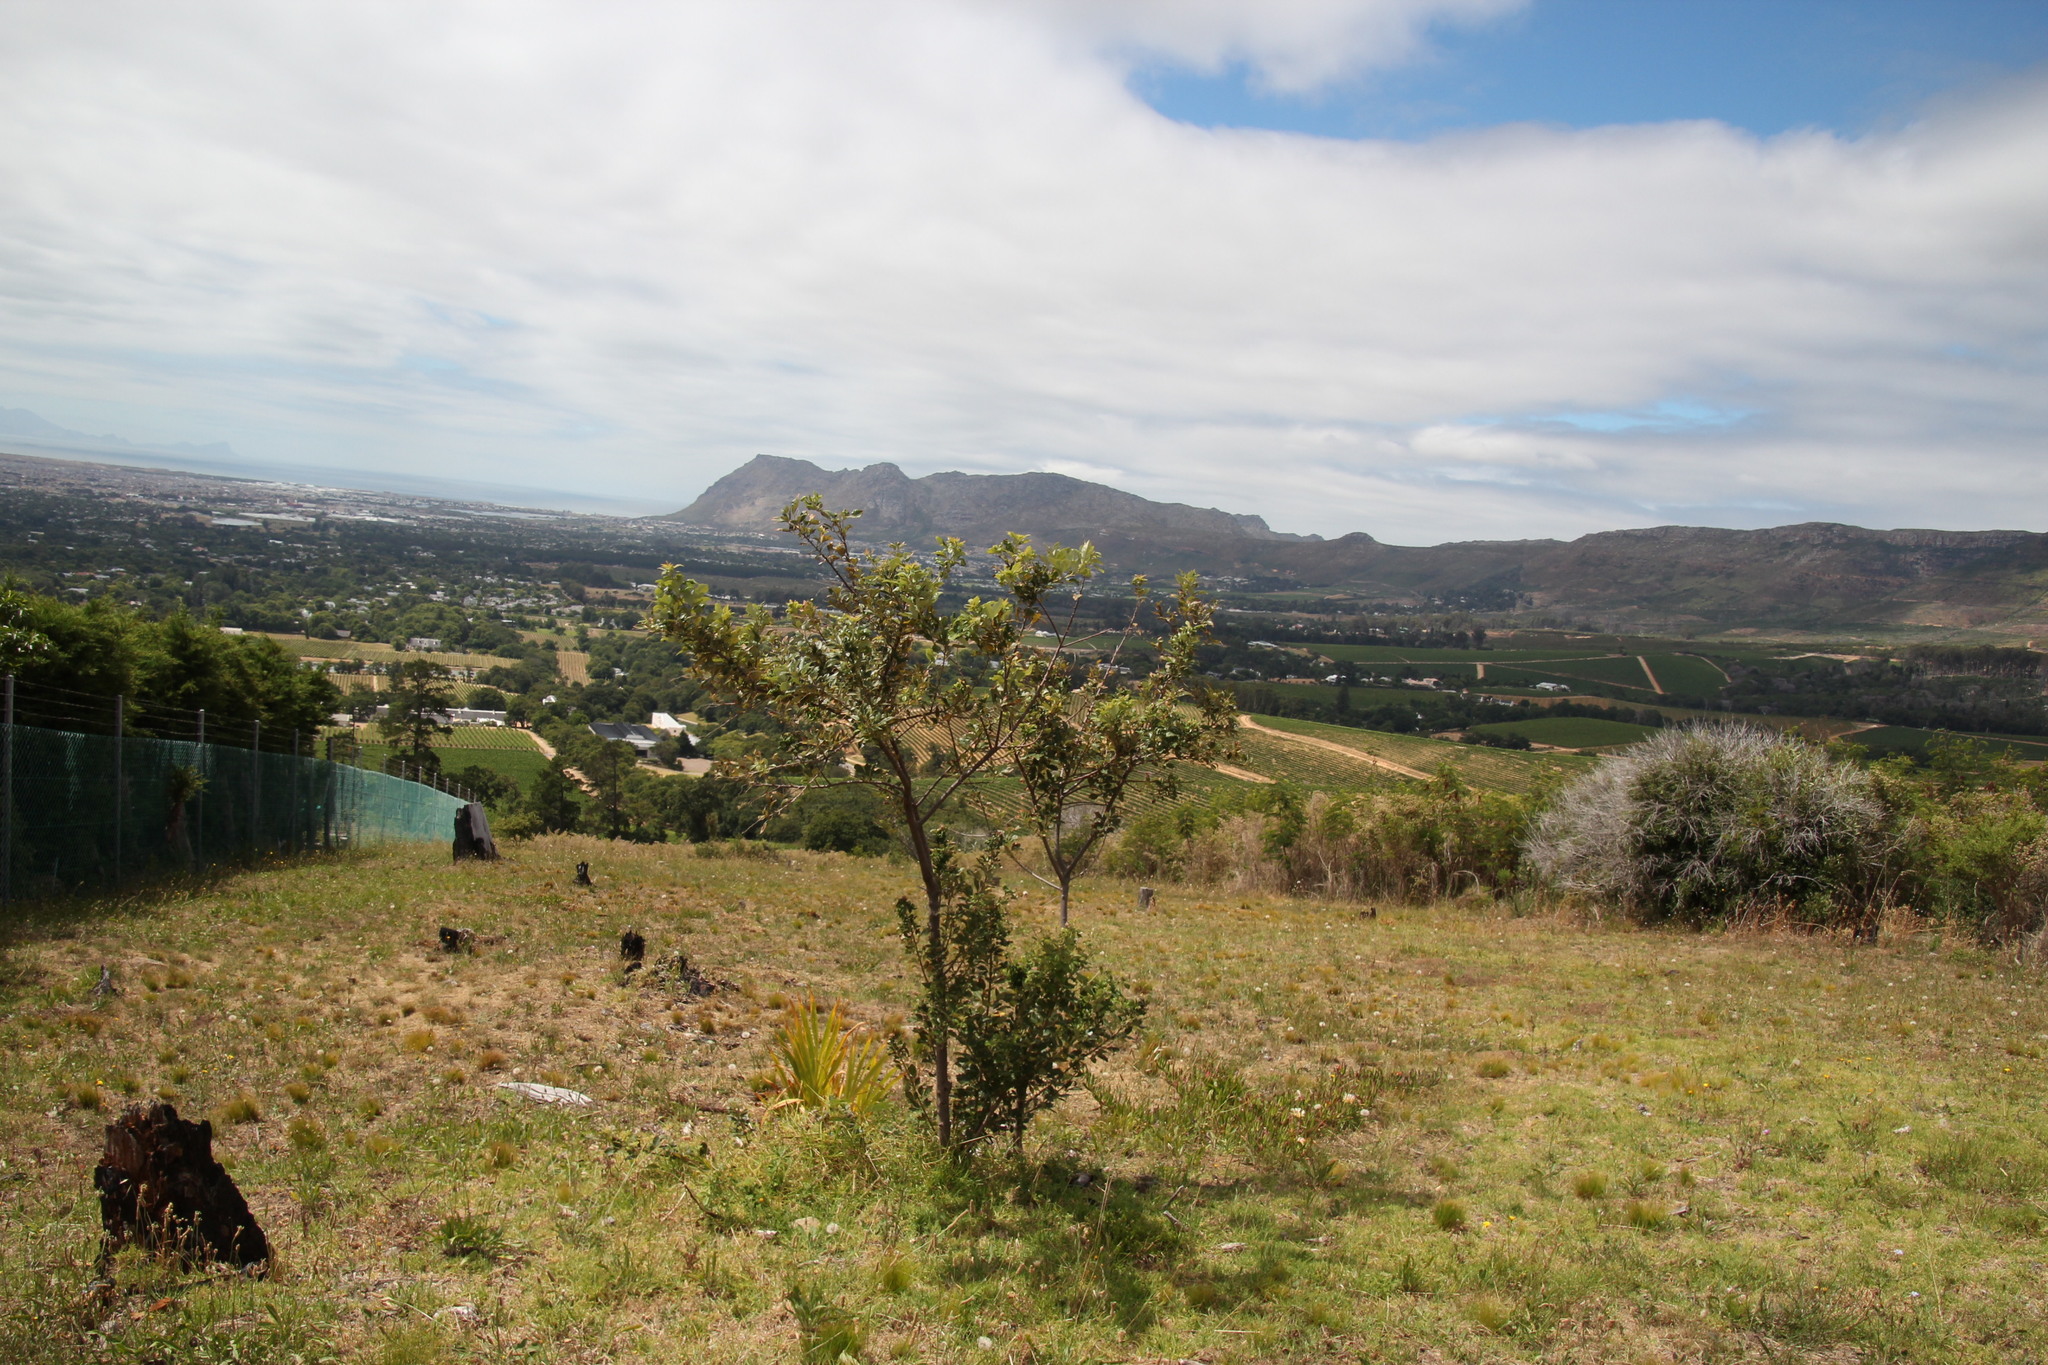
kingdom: Plantae
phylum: Tracheophyta
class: Magnoliopsida
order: Sapindales
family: Anacardiaceae
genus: Searsia
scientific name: Searsia tomentosa
